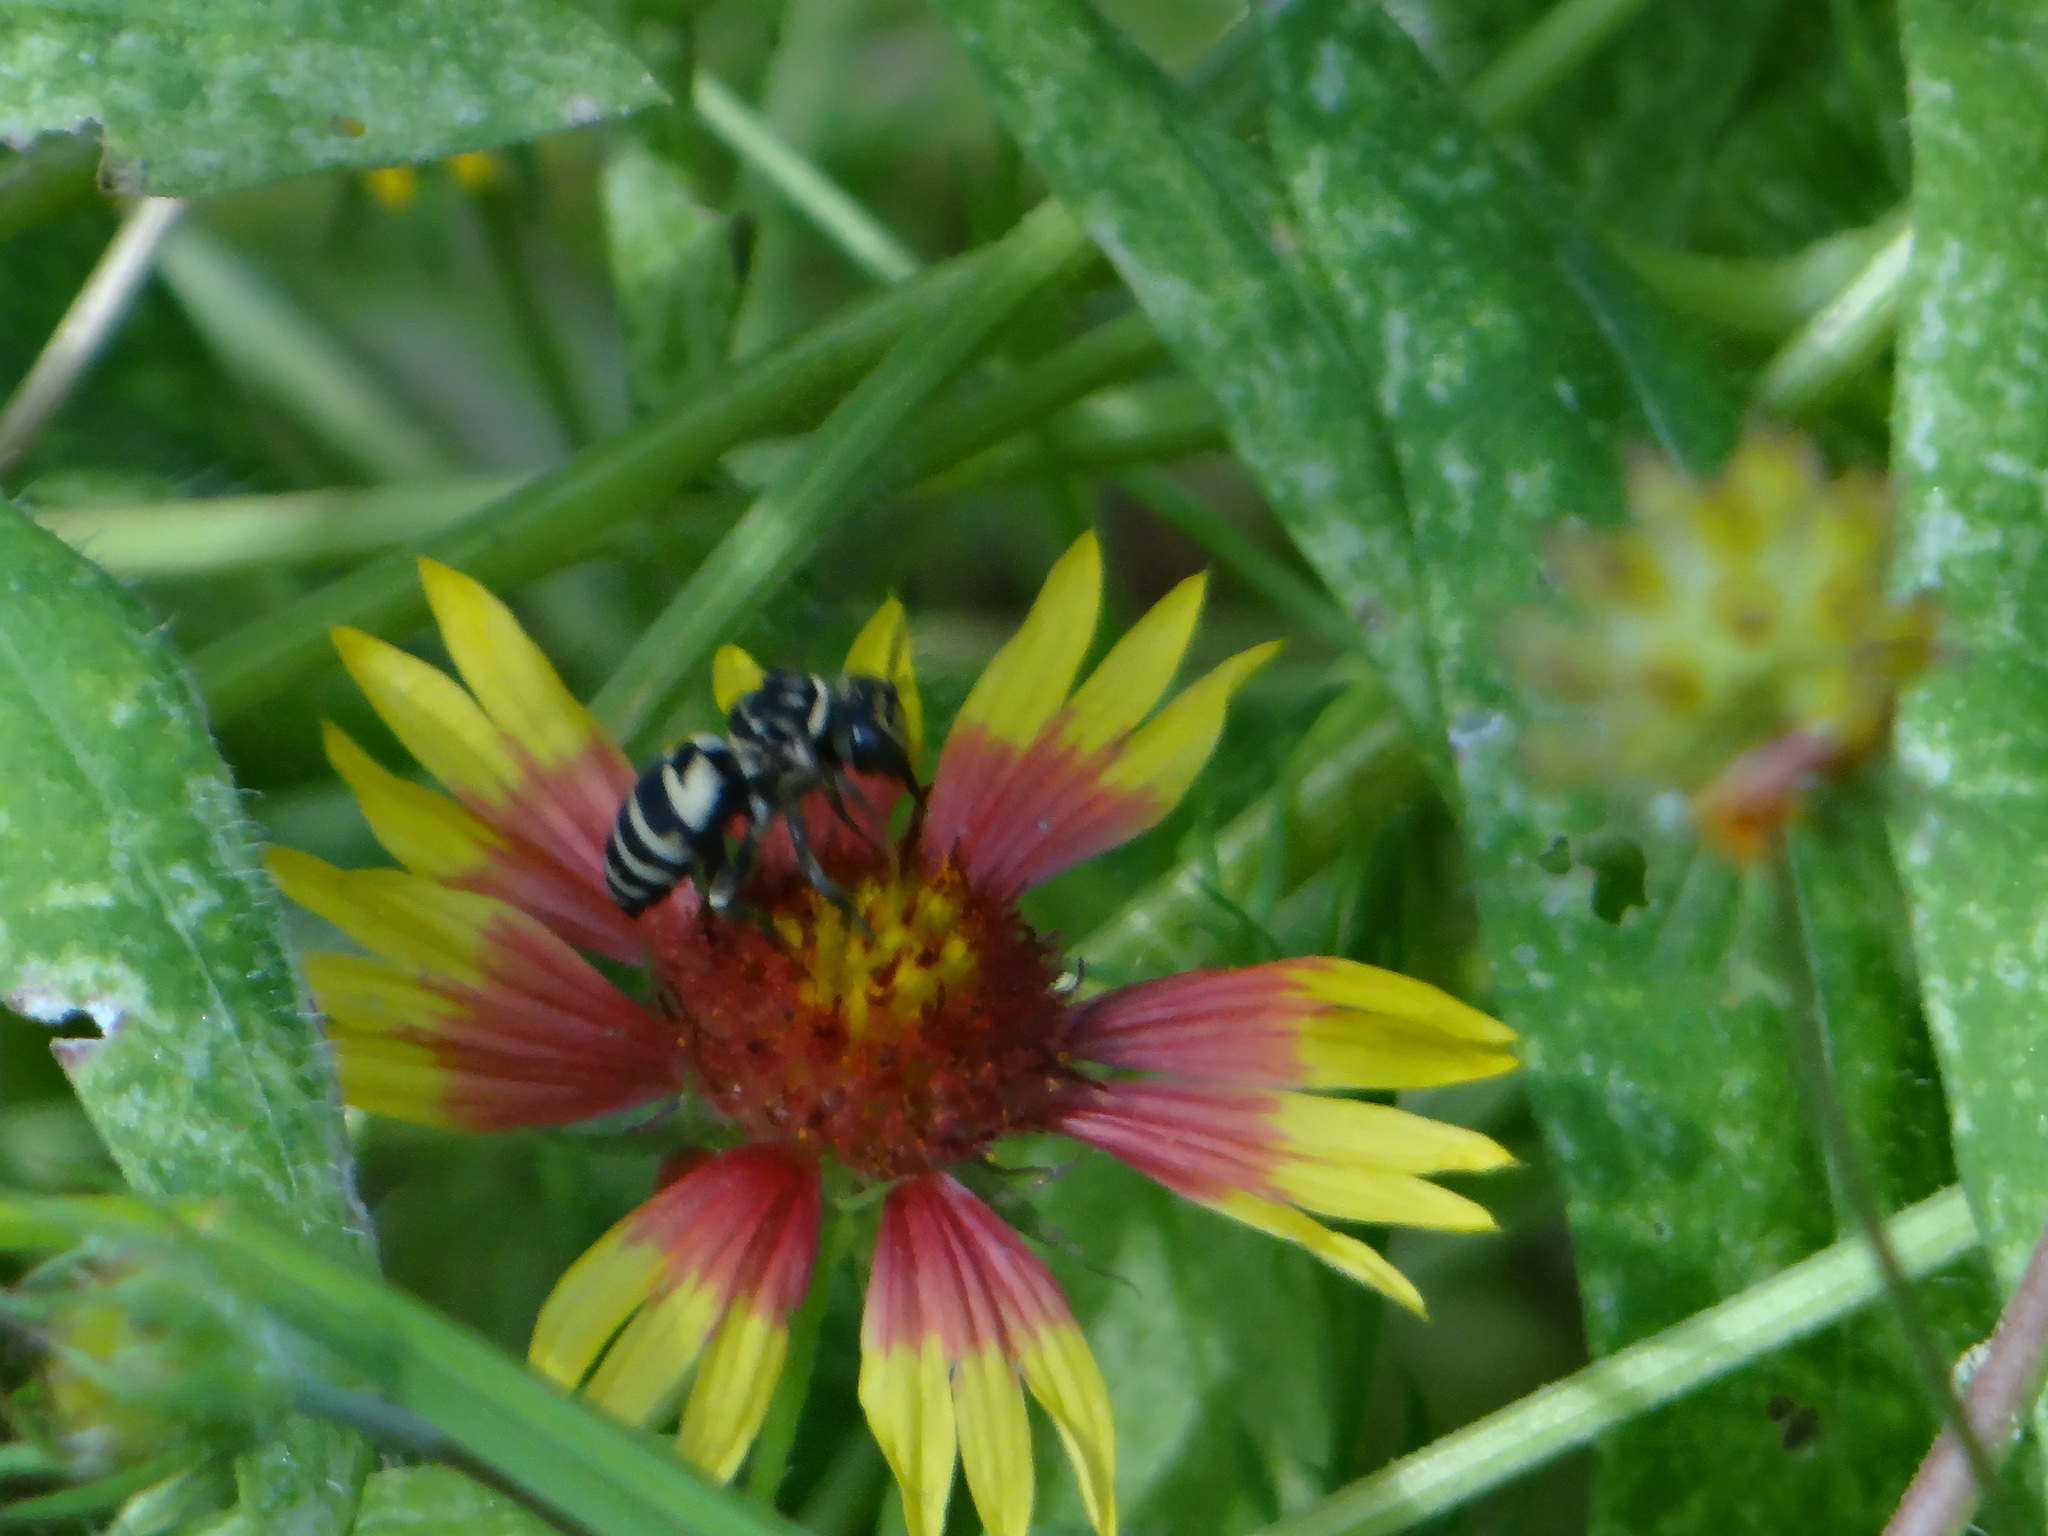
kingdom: Animalia
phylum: Arthropoda
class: Insecta
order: Hymenoptera
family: Apidae
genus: Triepeolus
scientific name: Triepeolus lunatus
